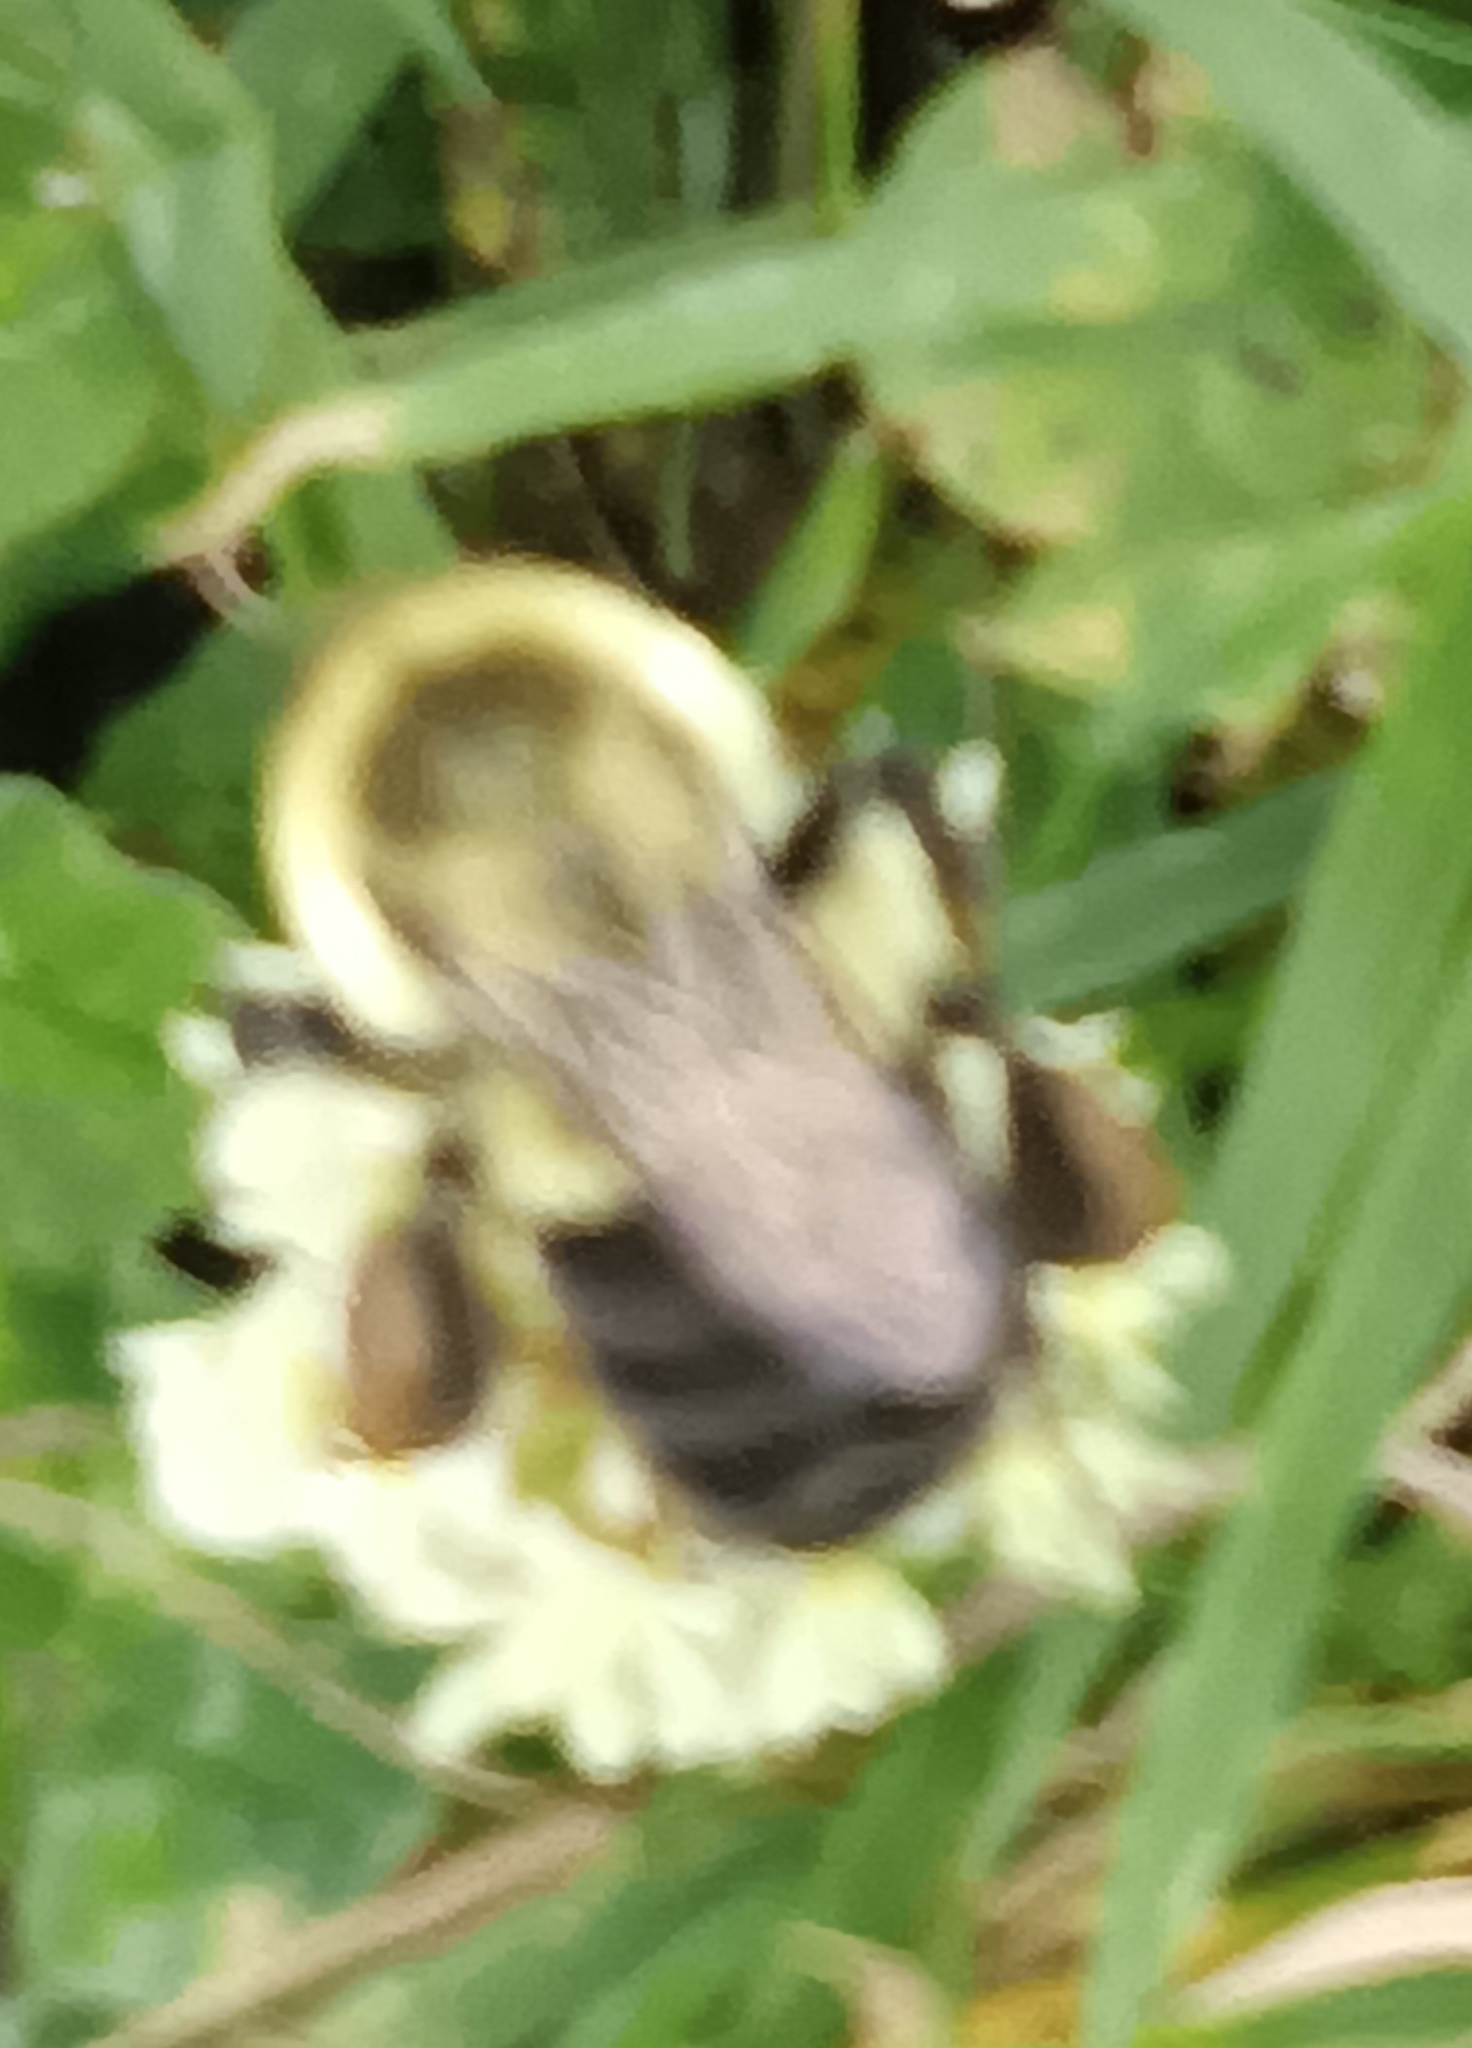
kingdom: Animalia
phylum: Arthropoda
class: Insecta
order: Hymenoptera
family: Apidae
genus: Bombus
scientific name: Bombus impatiens
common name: Common eastern bumble bee
